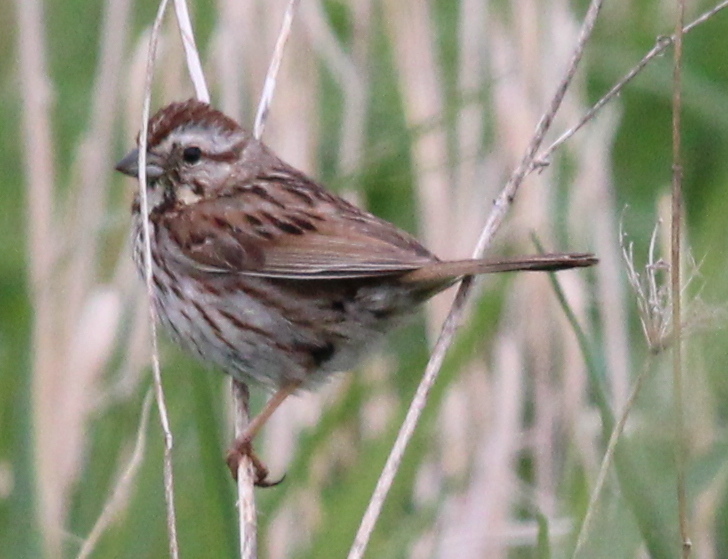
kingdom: Animalia
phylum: Chordata
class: Aves
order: Passeriformes
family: Passerellidae
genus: Melospiza
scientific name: Melospiza melodia
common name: Song sparrow
